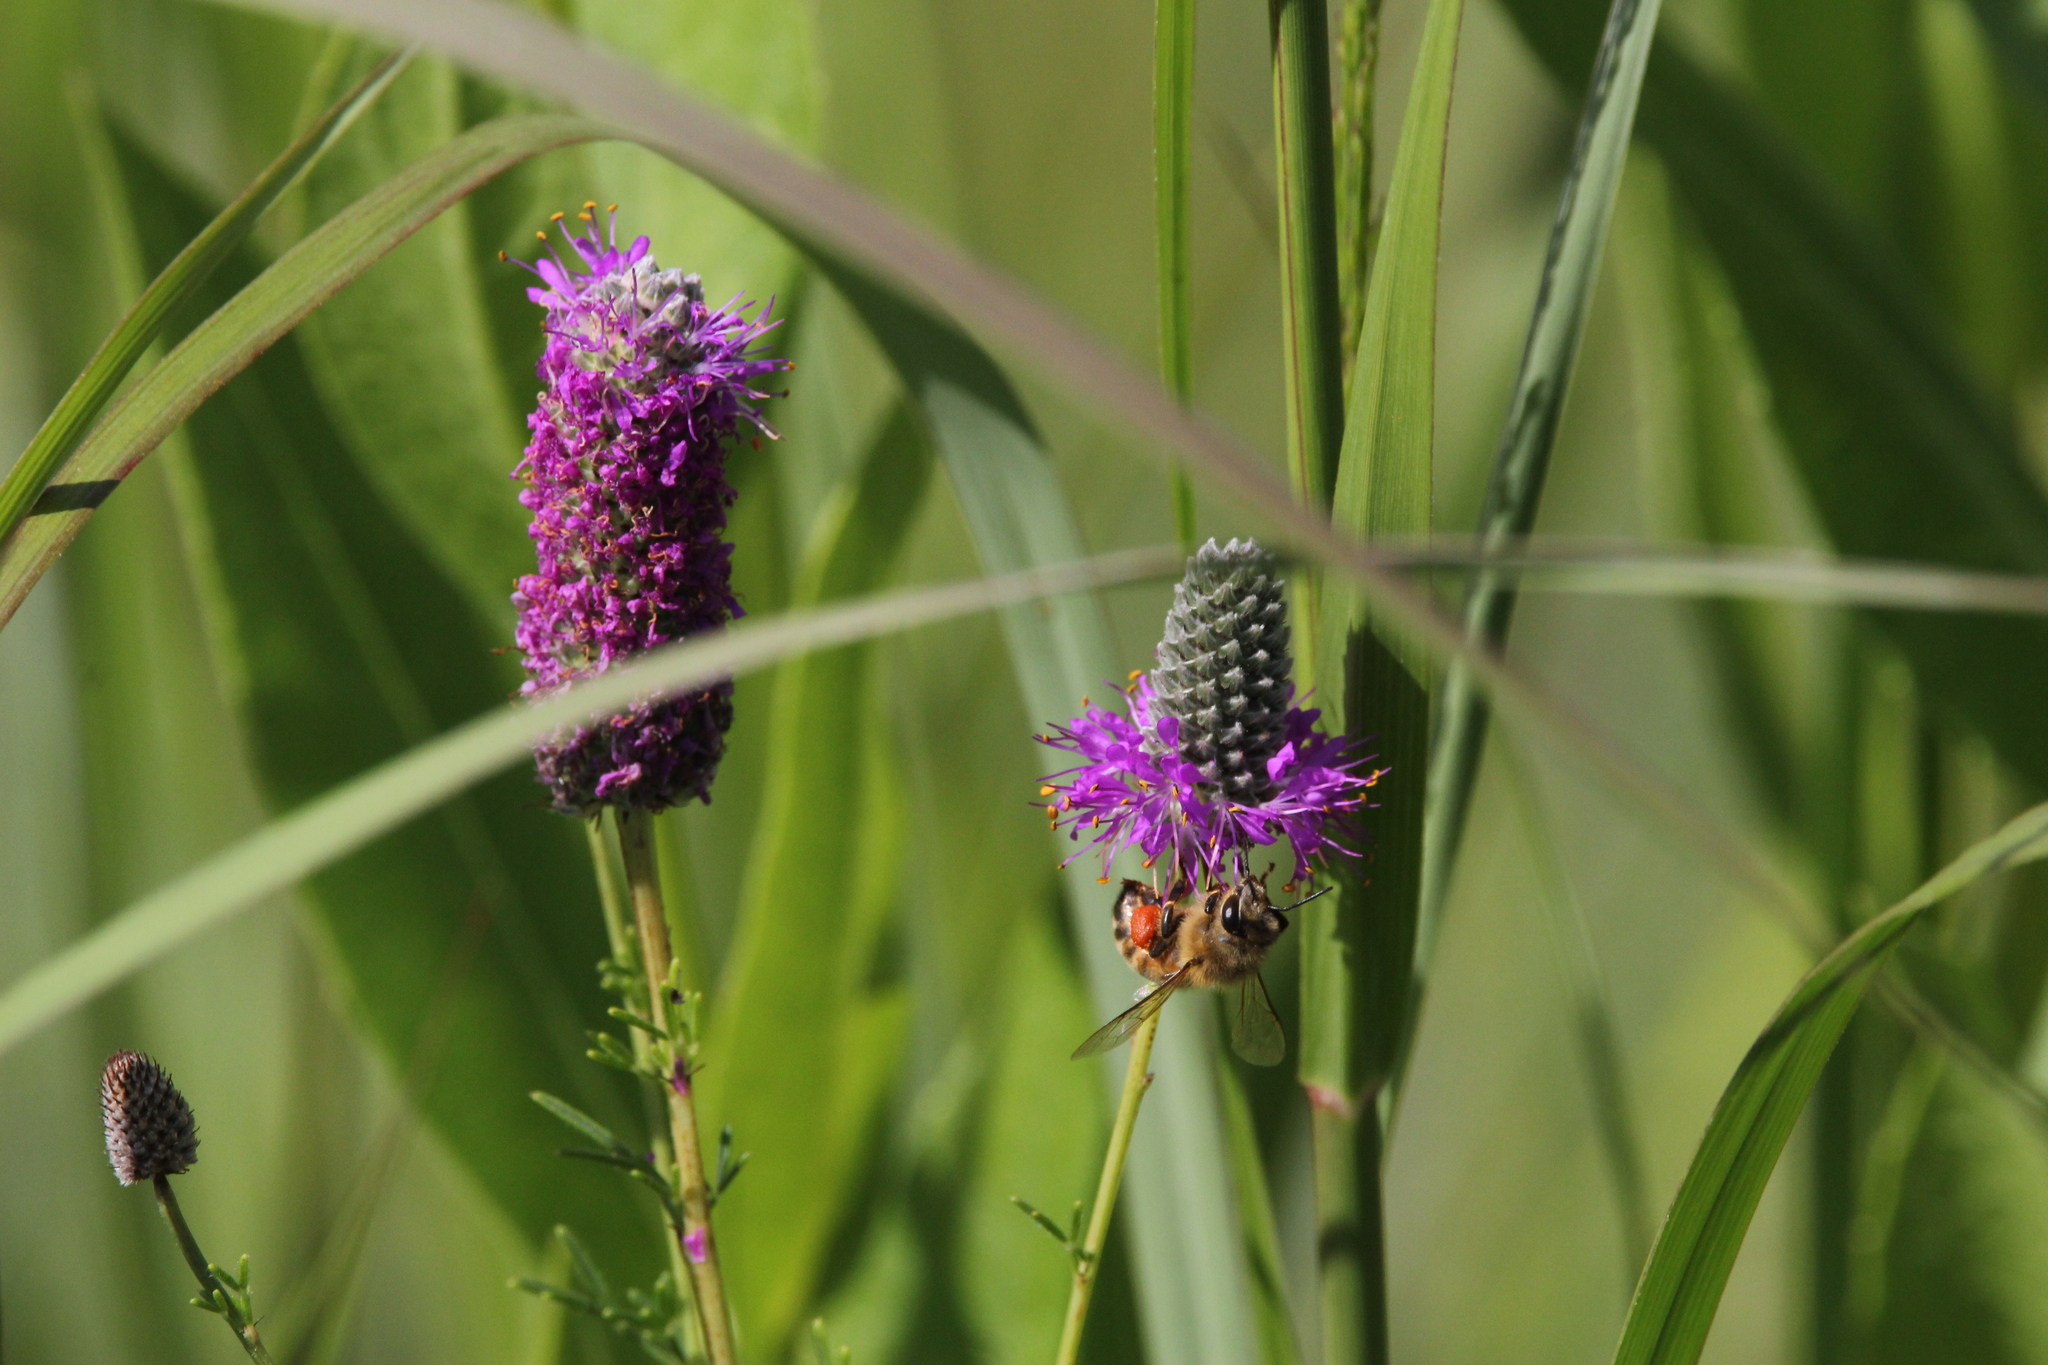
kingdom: Animalia
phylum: Arthropoda
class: Insecta
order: Hymenoptera
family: Apidae
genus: Apis
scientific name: Apis mellifera
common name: Honey bee
